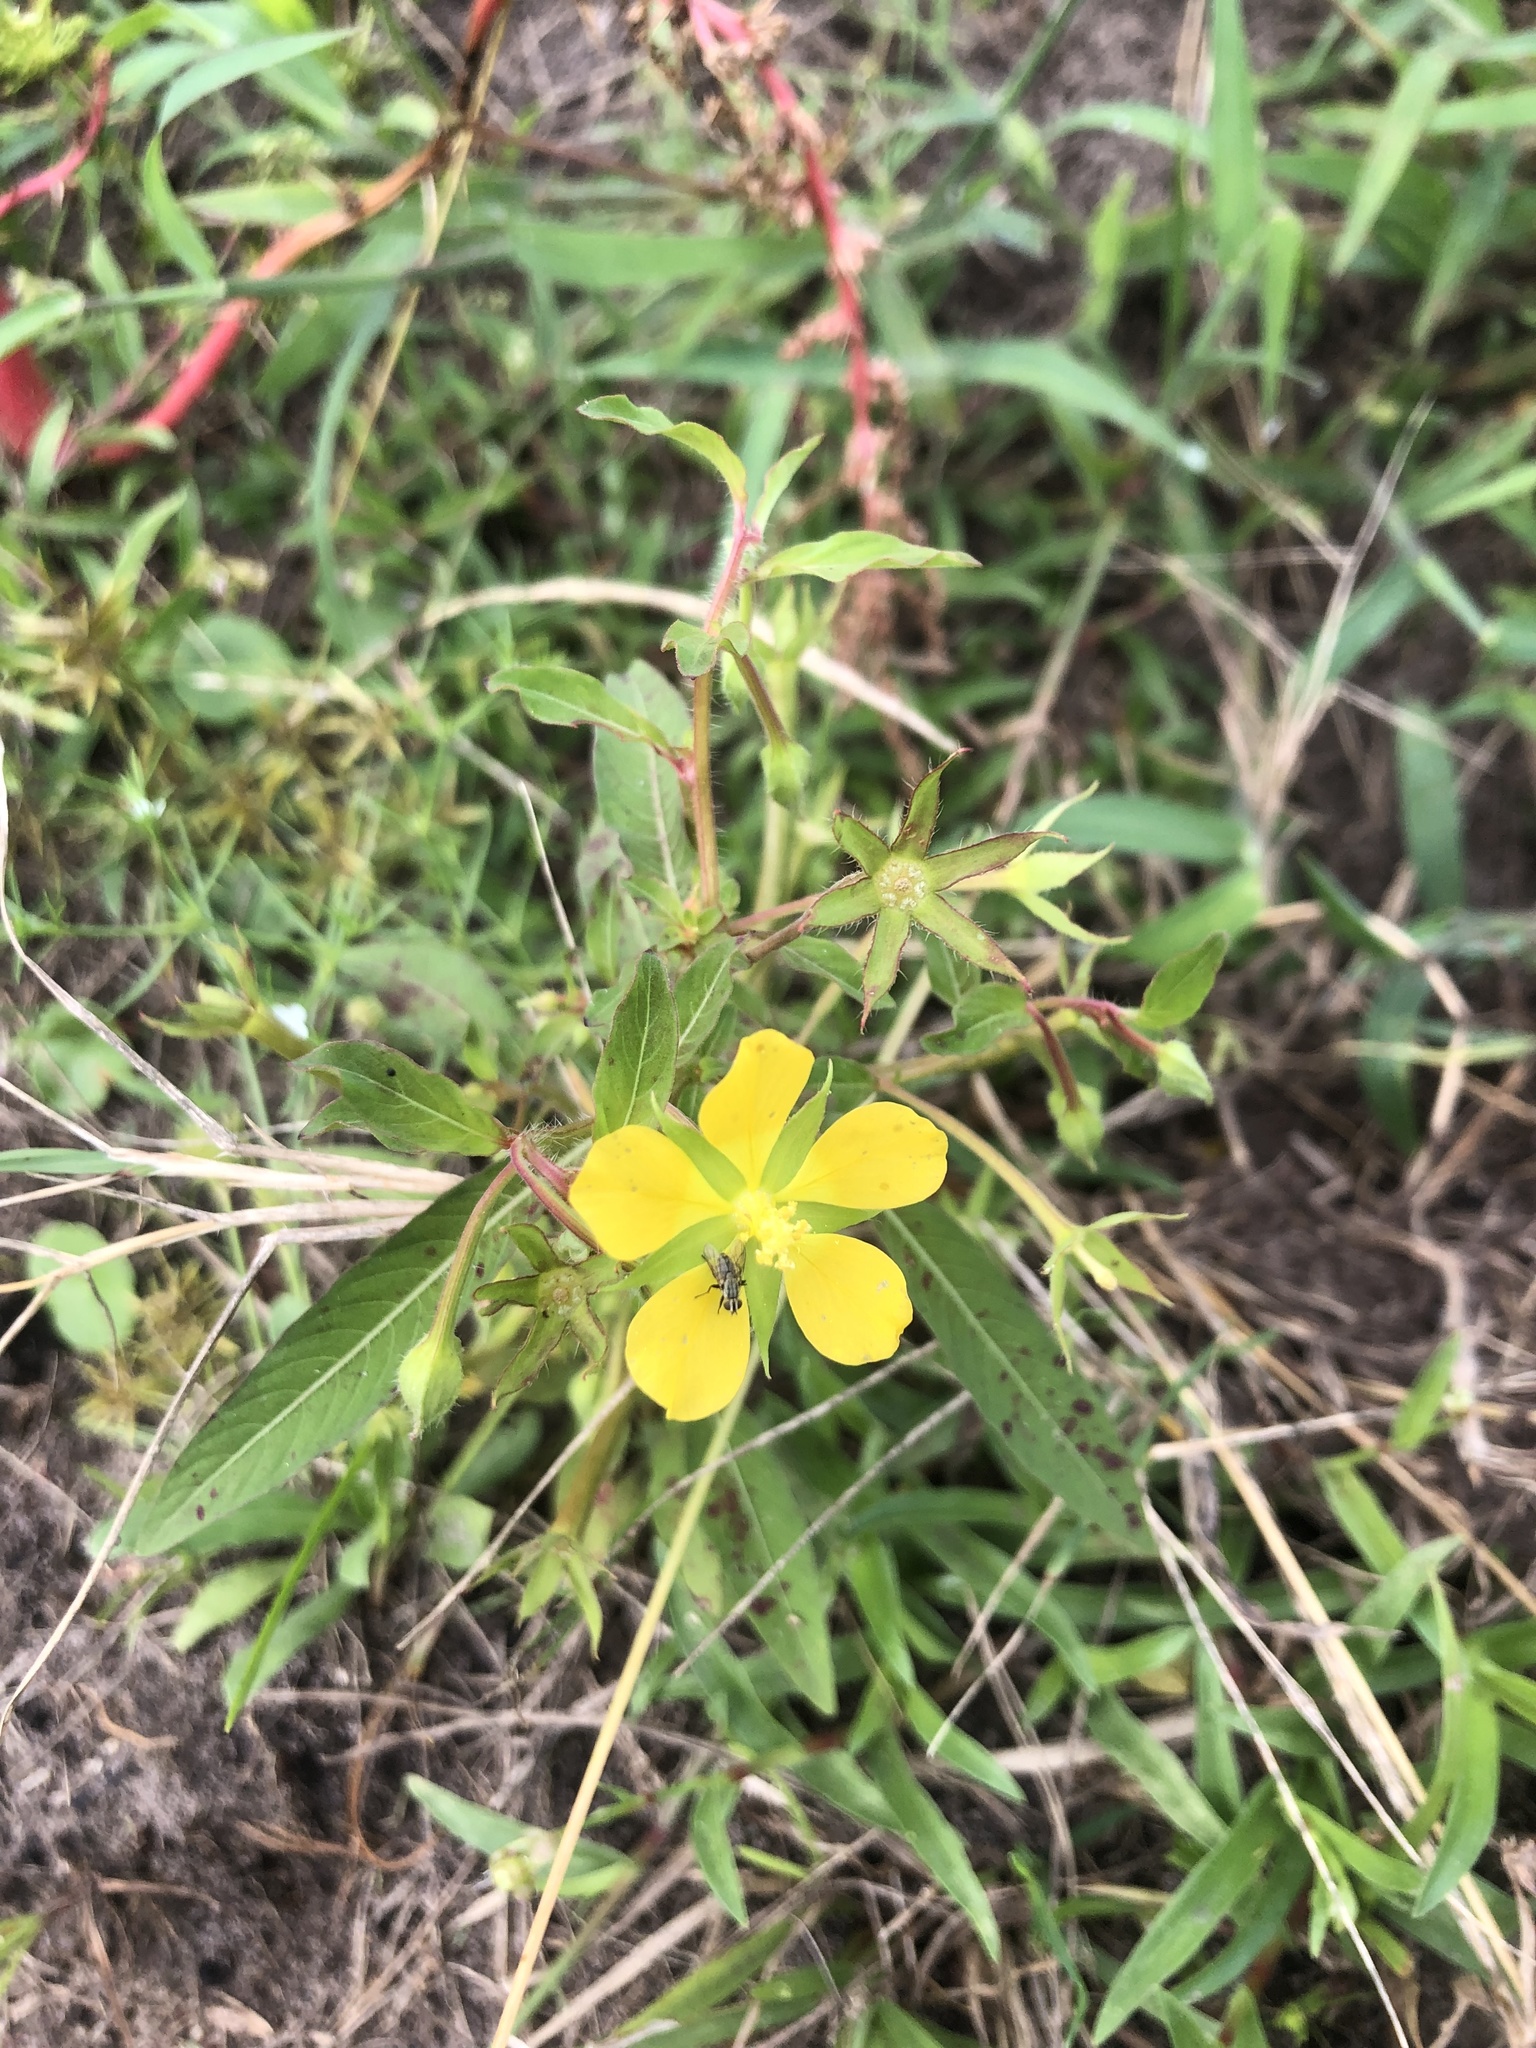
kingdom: Plantae
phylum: Tracheophyta
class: Magnoliopsida
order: Myrtales
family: Onagraceae
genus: Ludwigia
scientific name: Ludwigia leptocarpa
